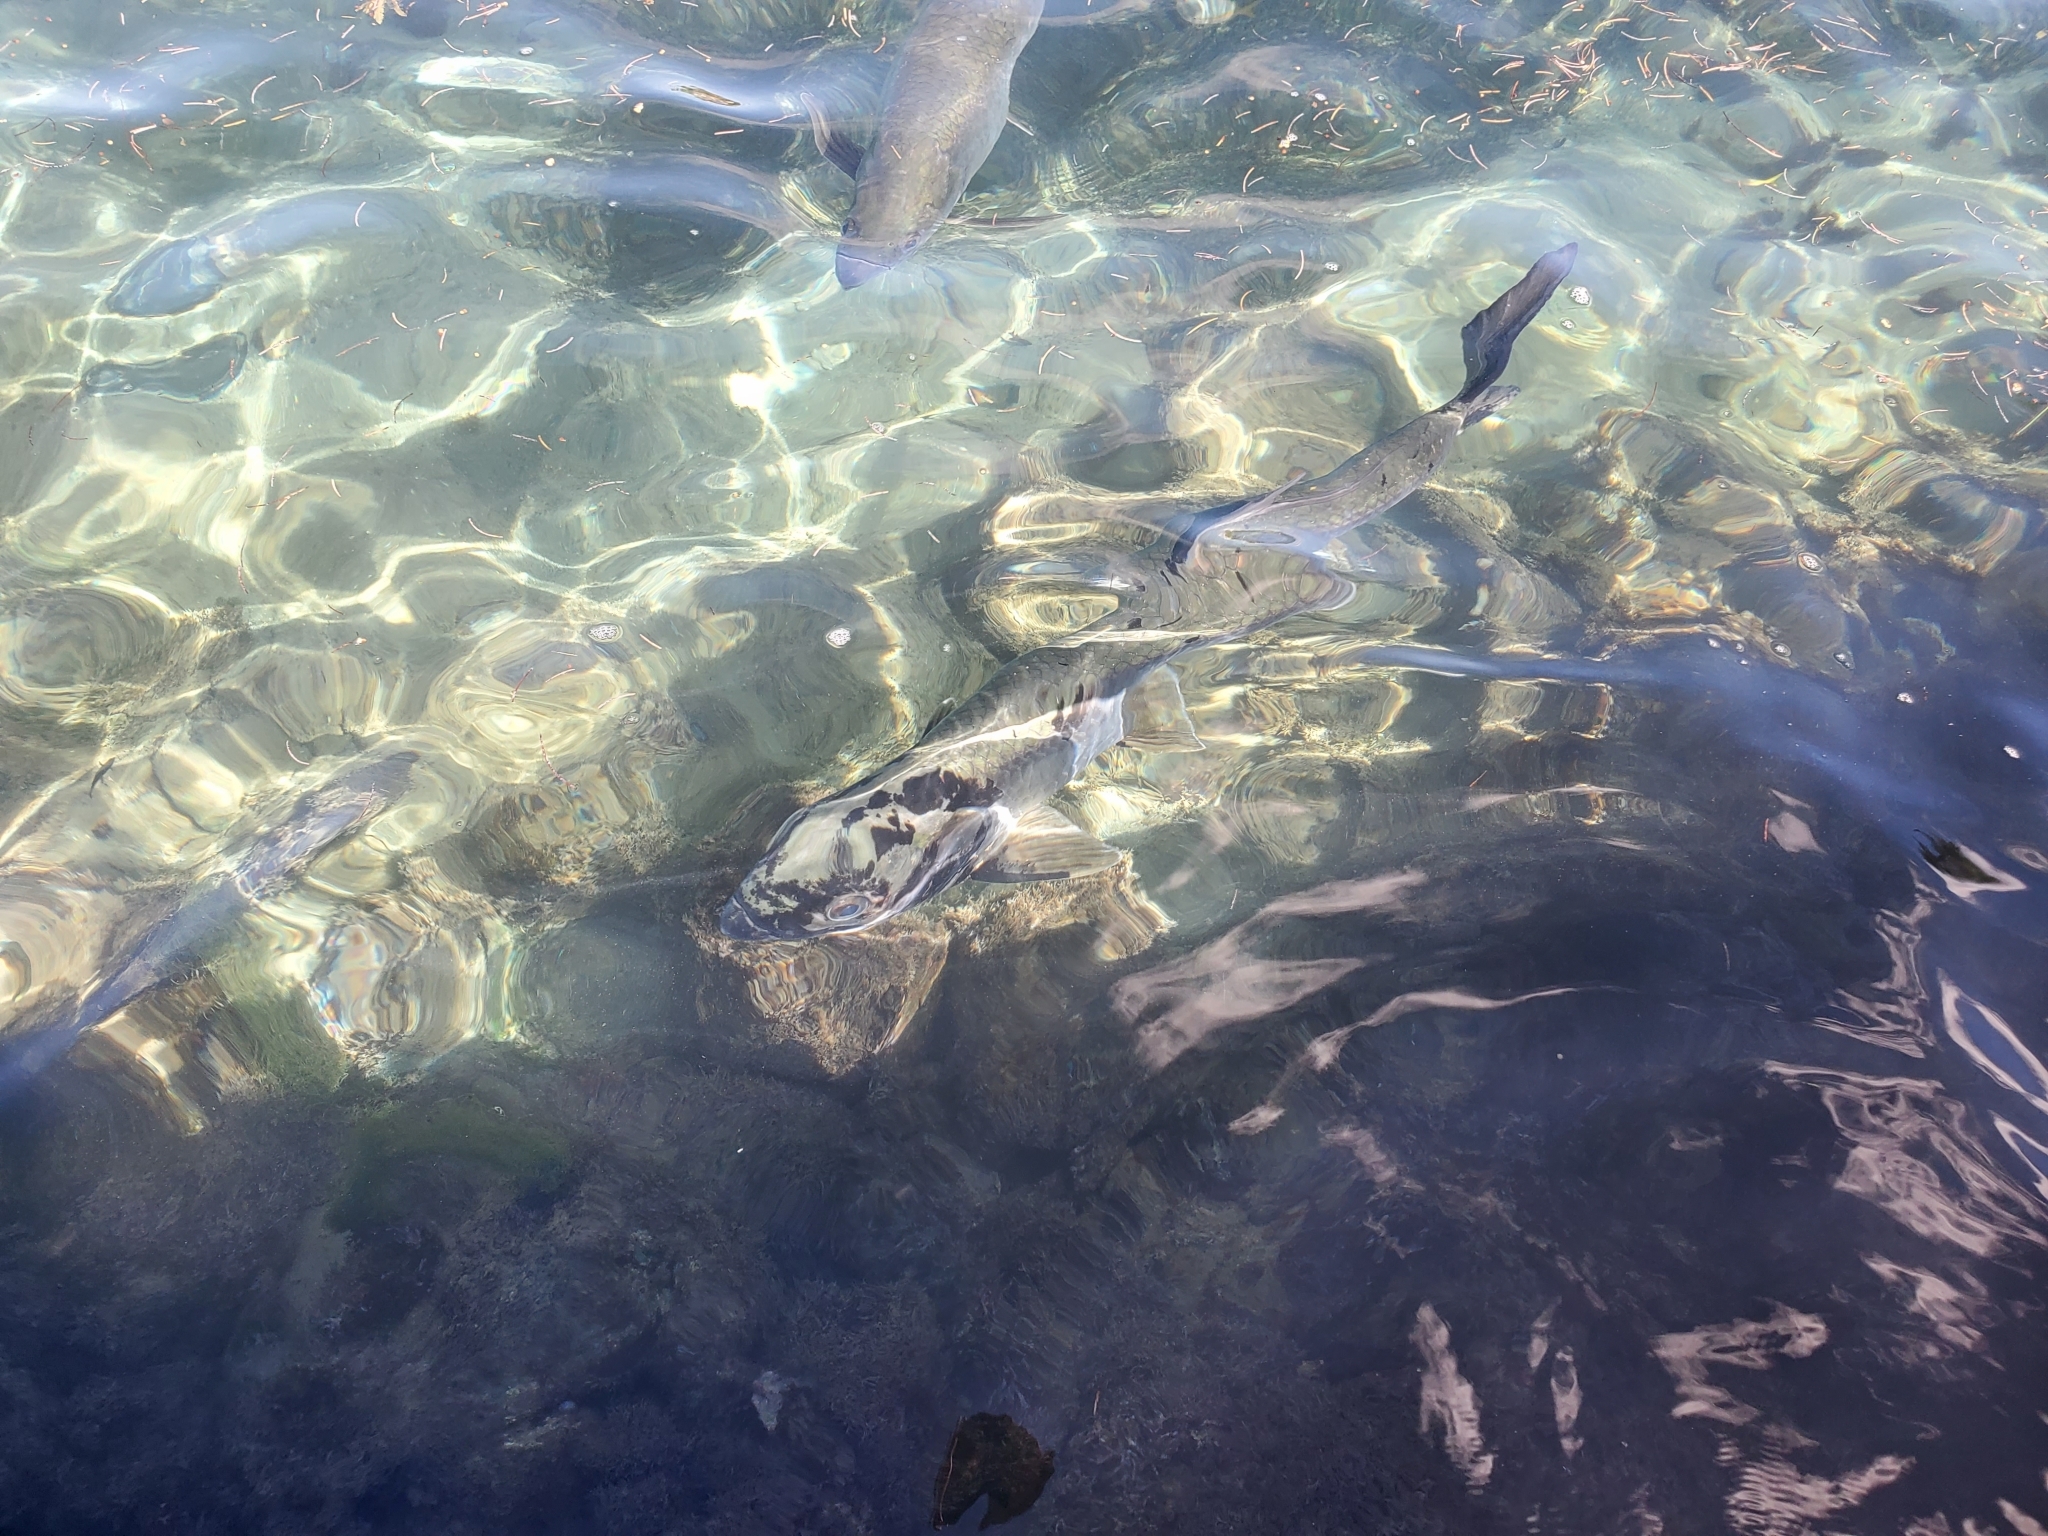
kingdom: Animalia
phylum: Chordata
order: Elopiformes
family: Megalopidae
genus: Megalops
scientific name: Megalops atlanticus
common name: Tarpon
